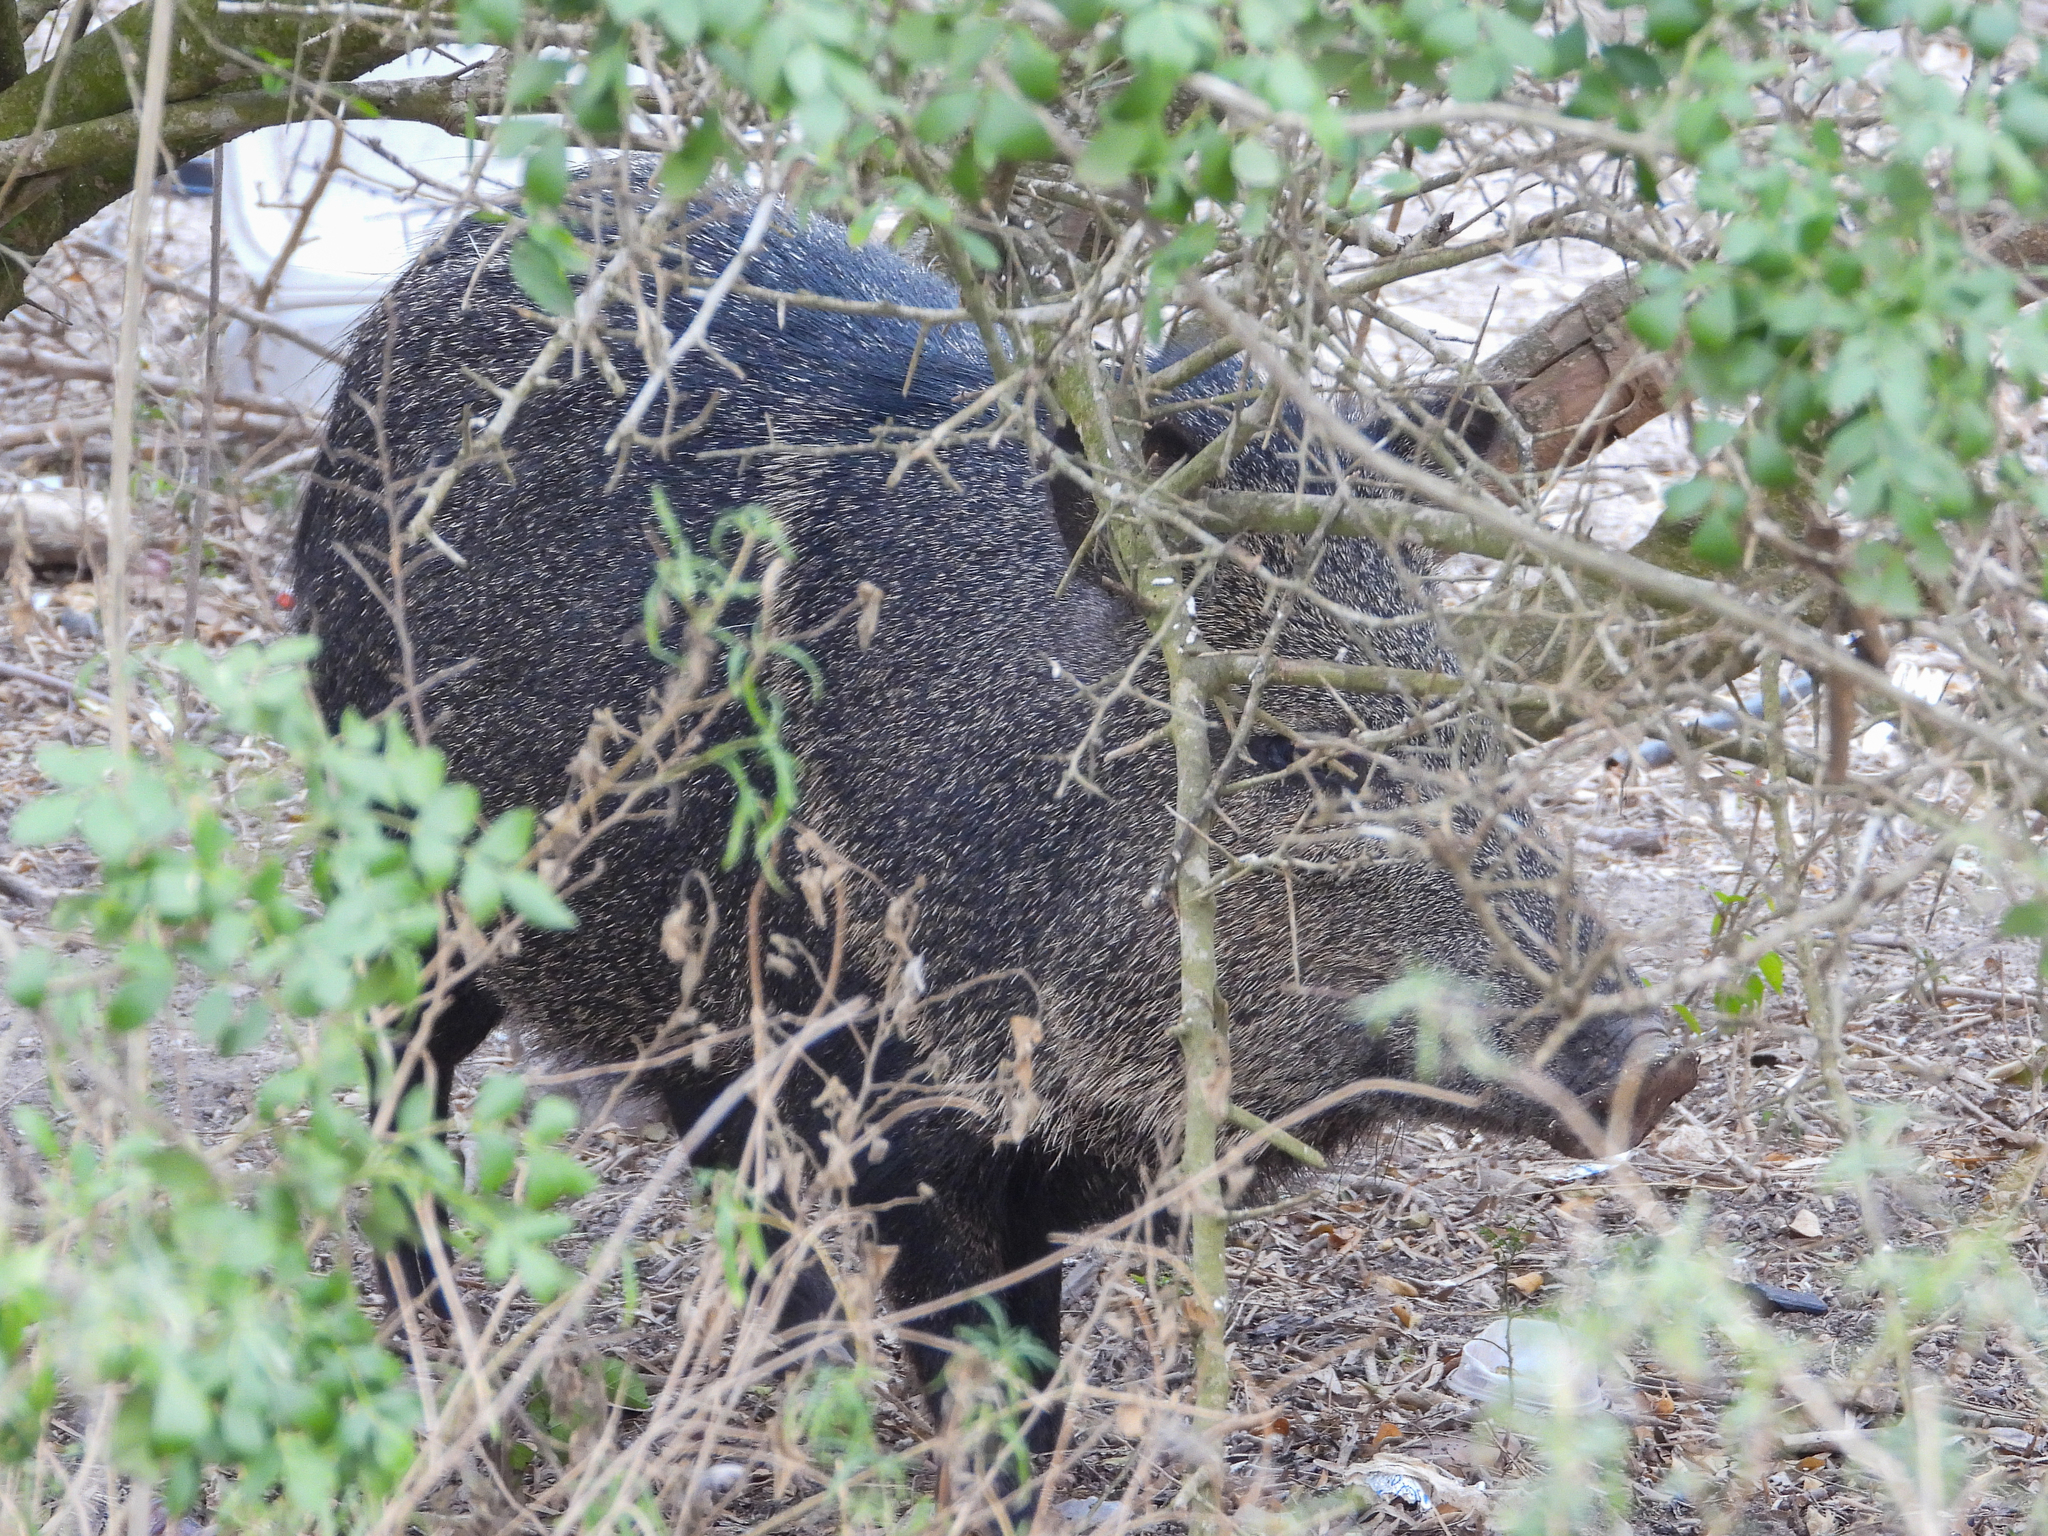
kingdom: Animalia
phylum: Chordata
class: Mammalia
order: Artiodactyla
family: Tayassuidae
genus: Pecari
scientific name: Pecari tajacu
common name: Collared peccary
